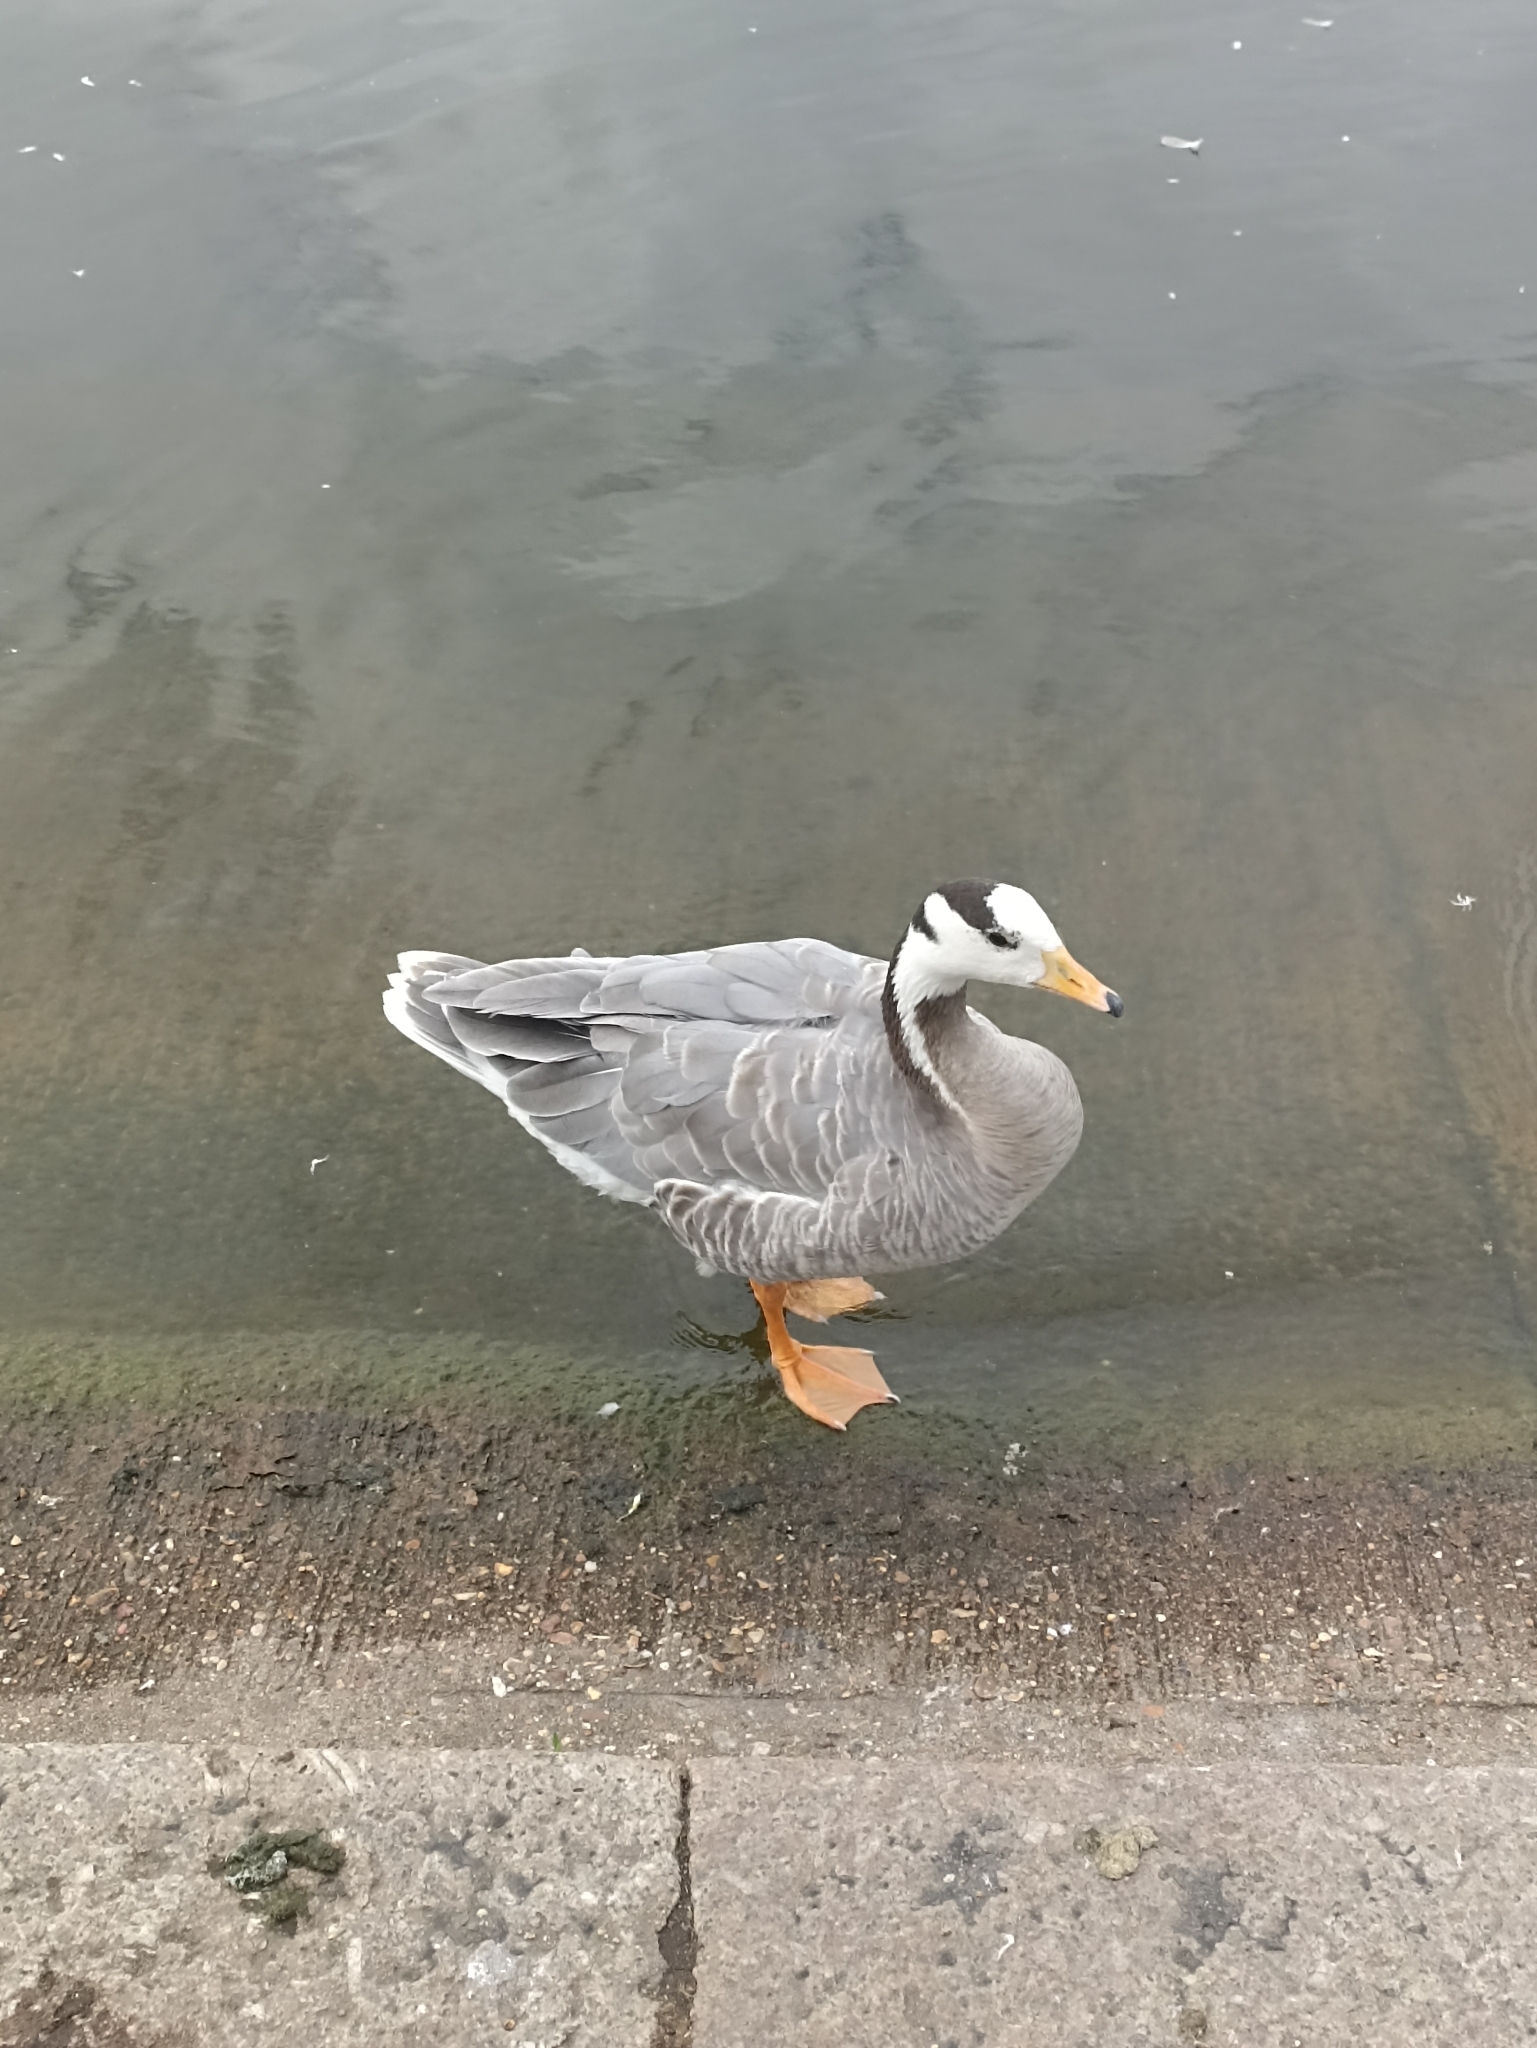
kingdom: Animalia
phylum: Chordata
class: Aves
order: Anseriformes
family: Anatidae
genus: Anser
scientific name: Anser indicus
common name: Bar-headed goose
